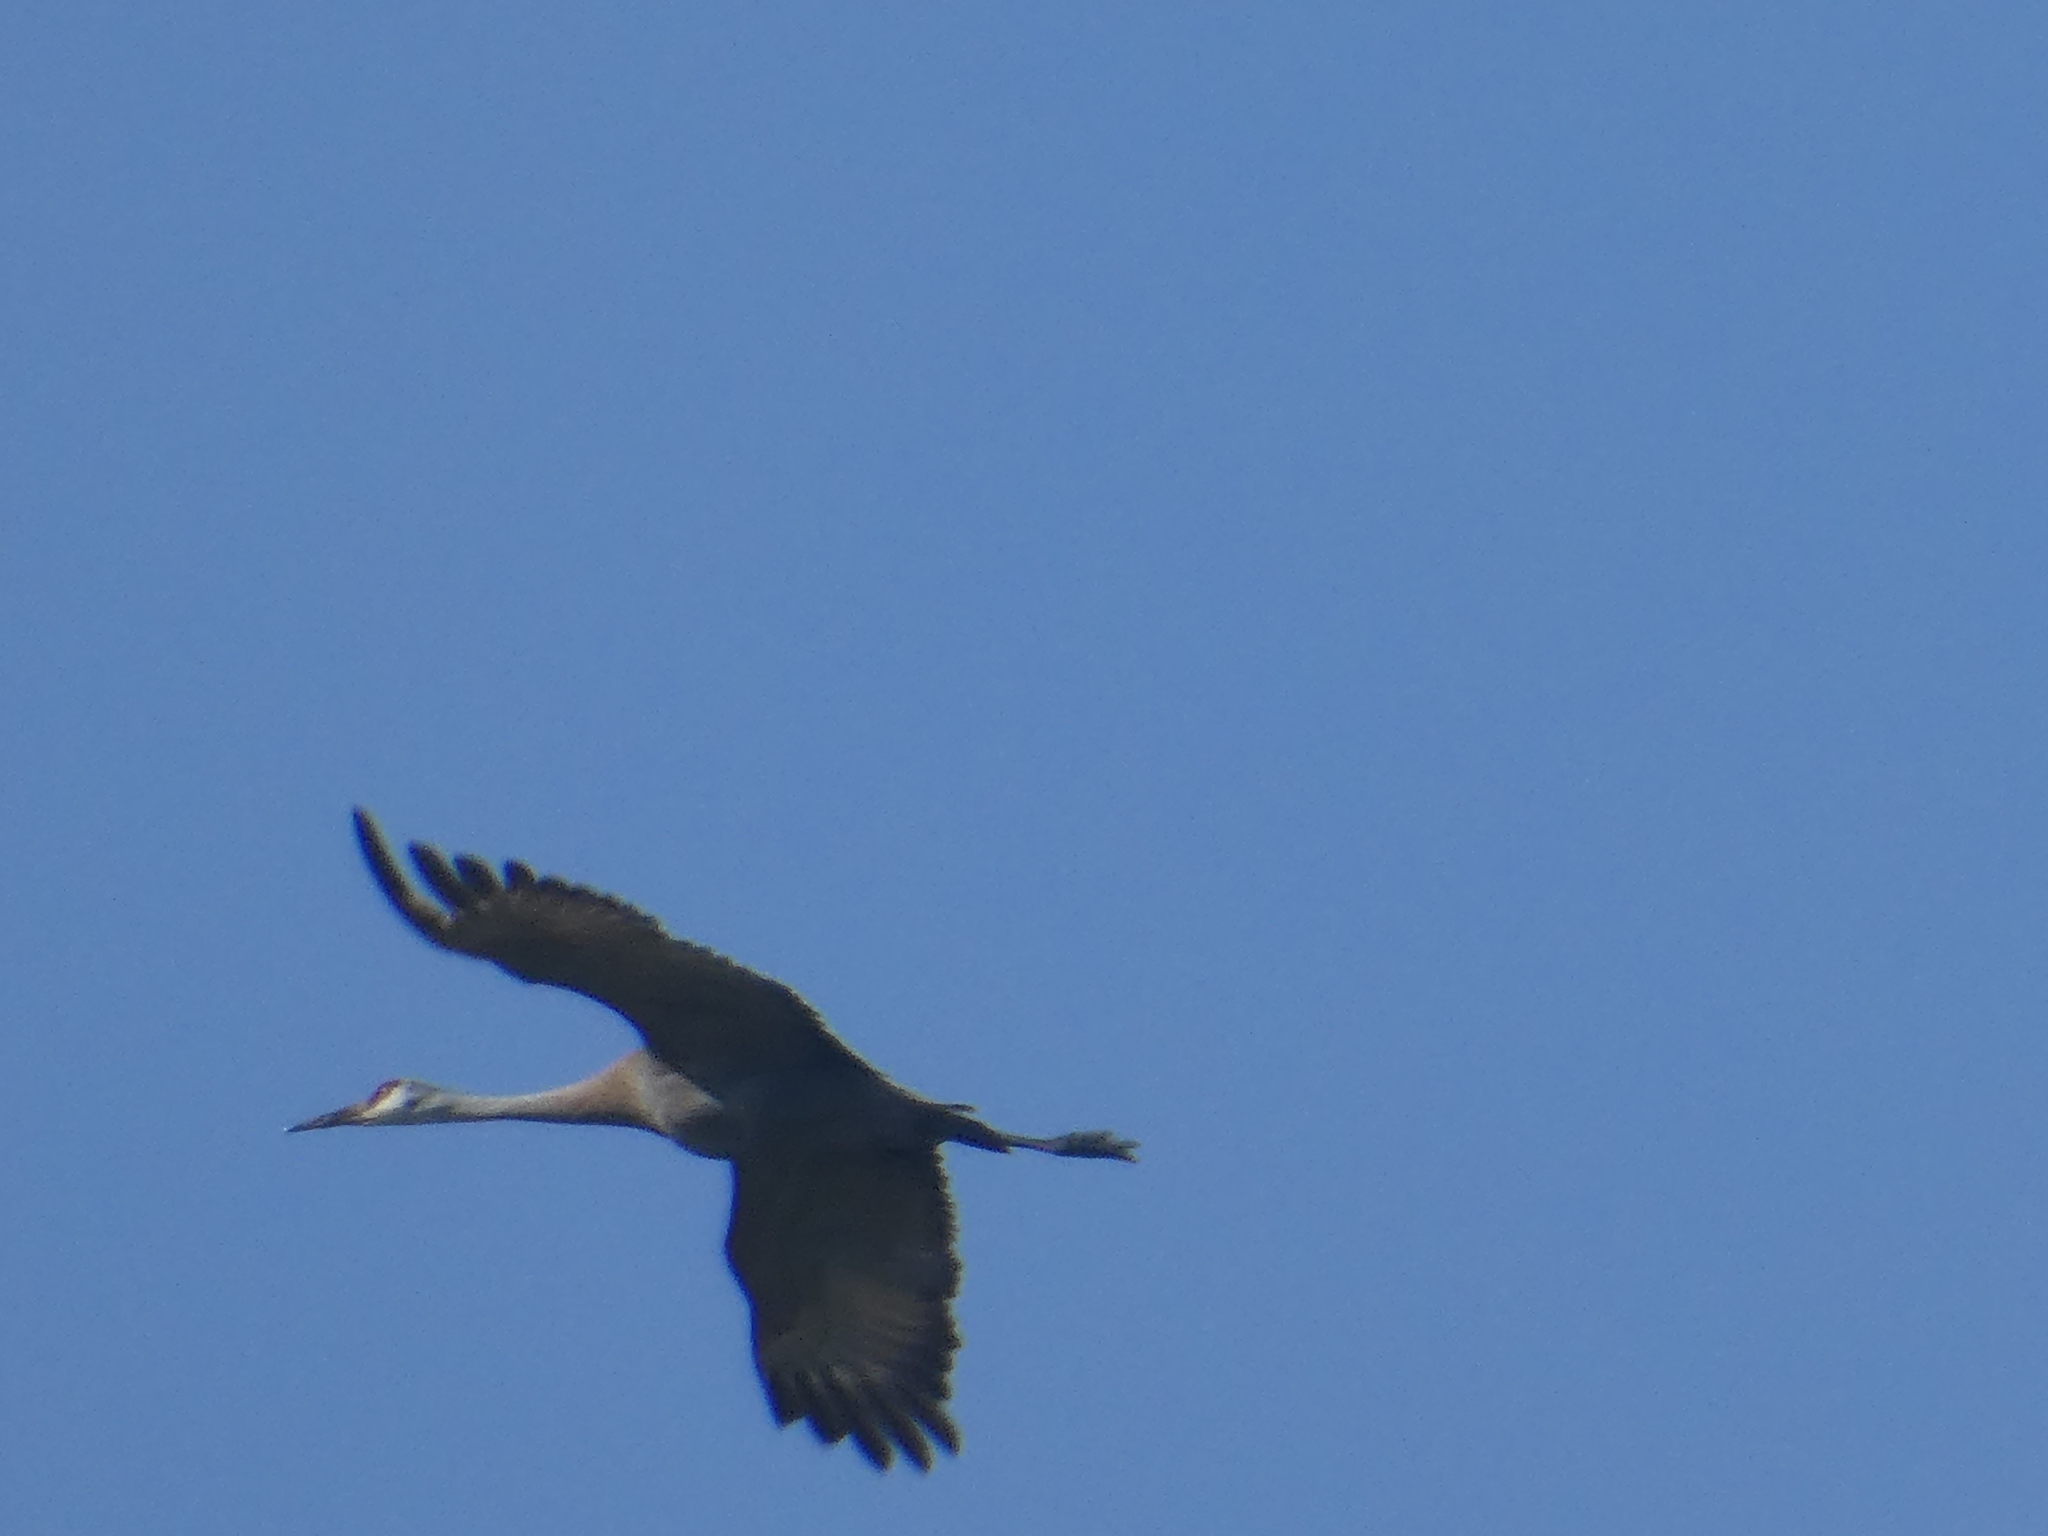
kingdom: Animalia
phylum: Chordata
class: Aves
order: Gruiformes
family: Gruidae
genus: Grus
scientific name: Grus canadensis
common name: Sandhill crane
